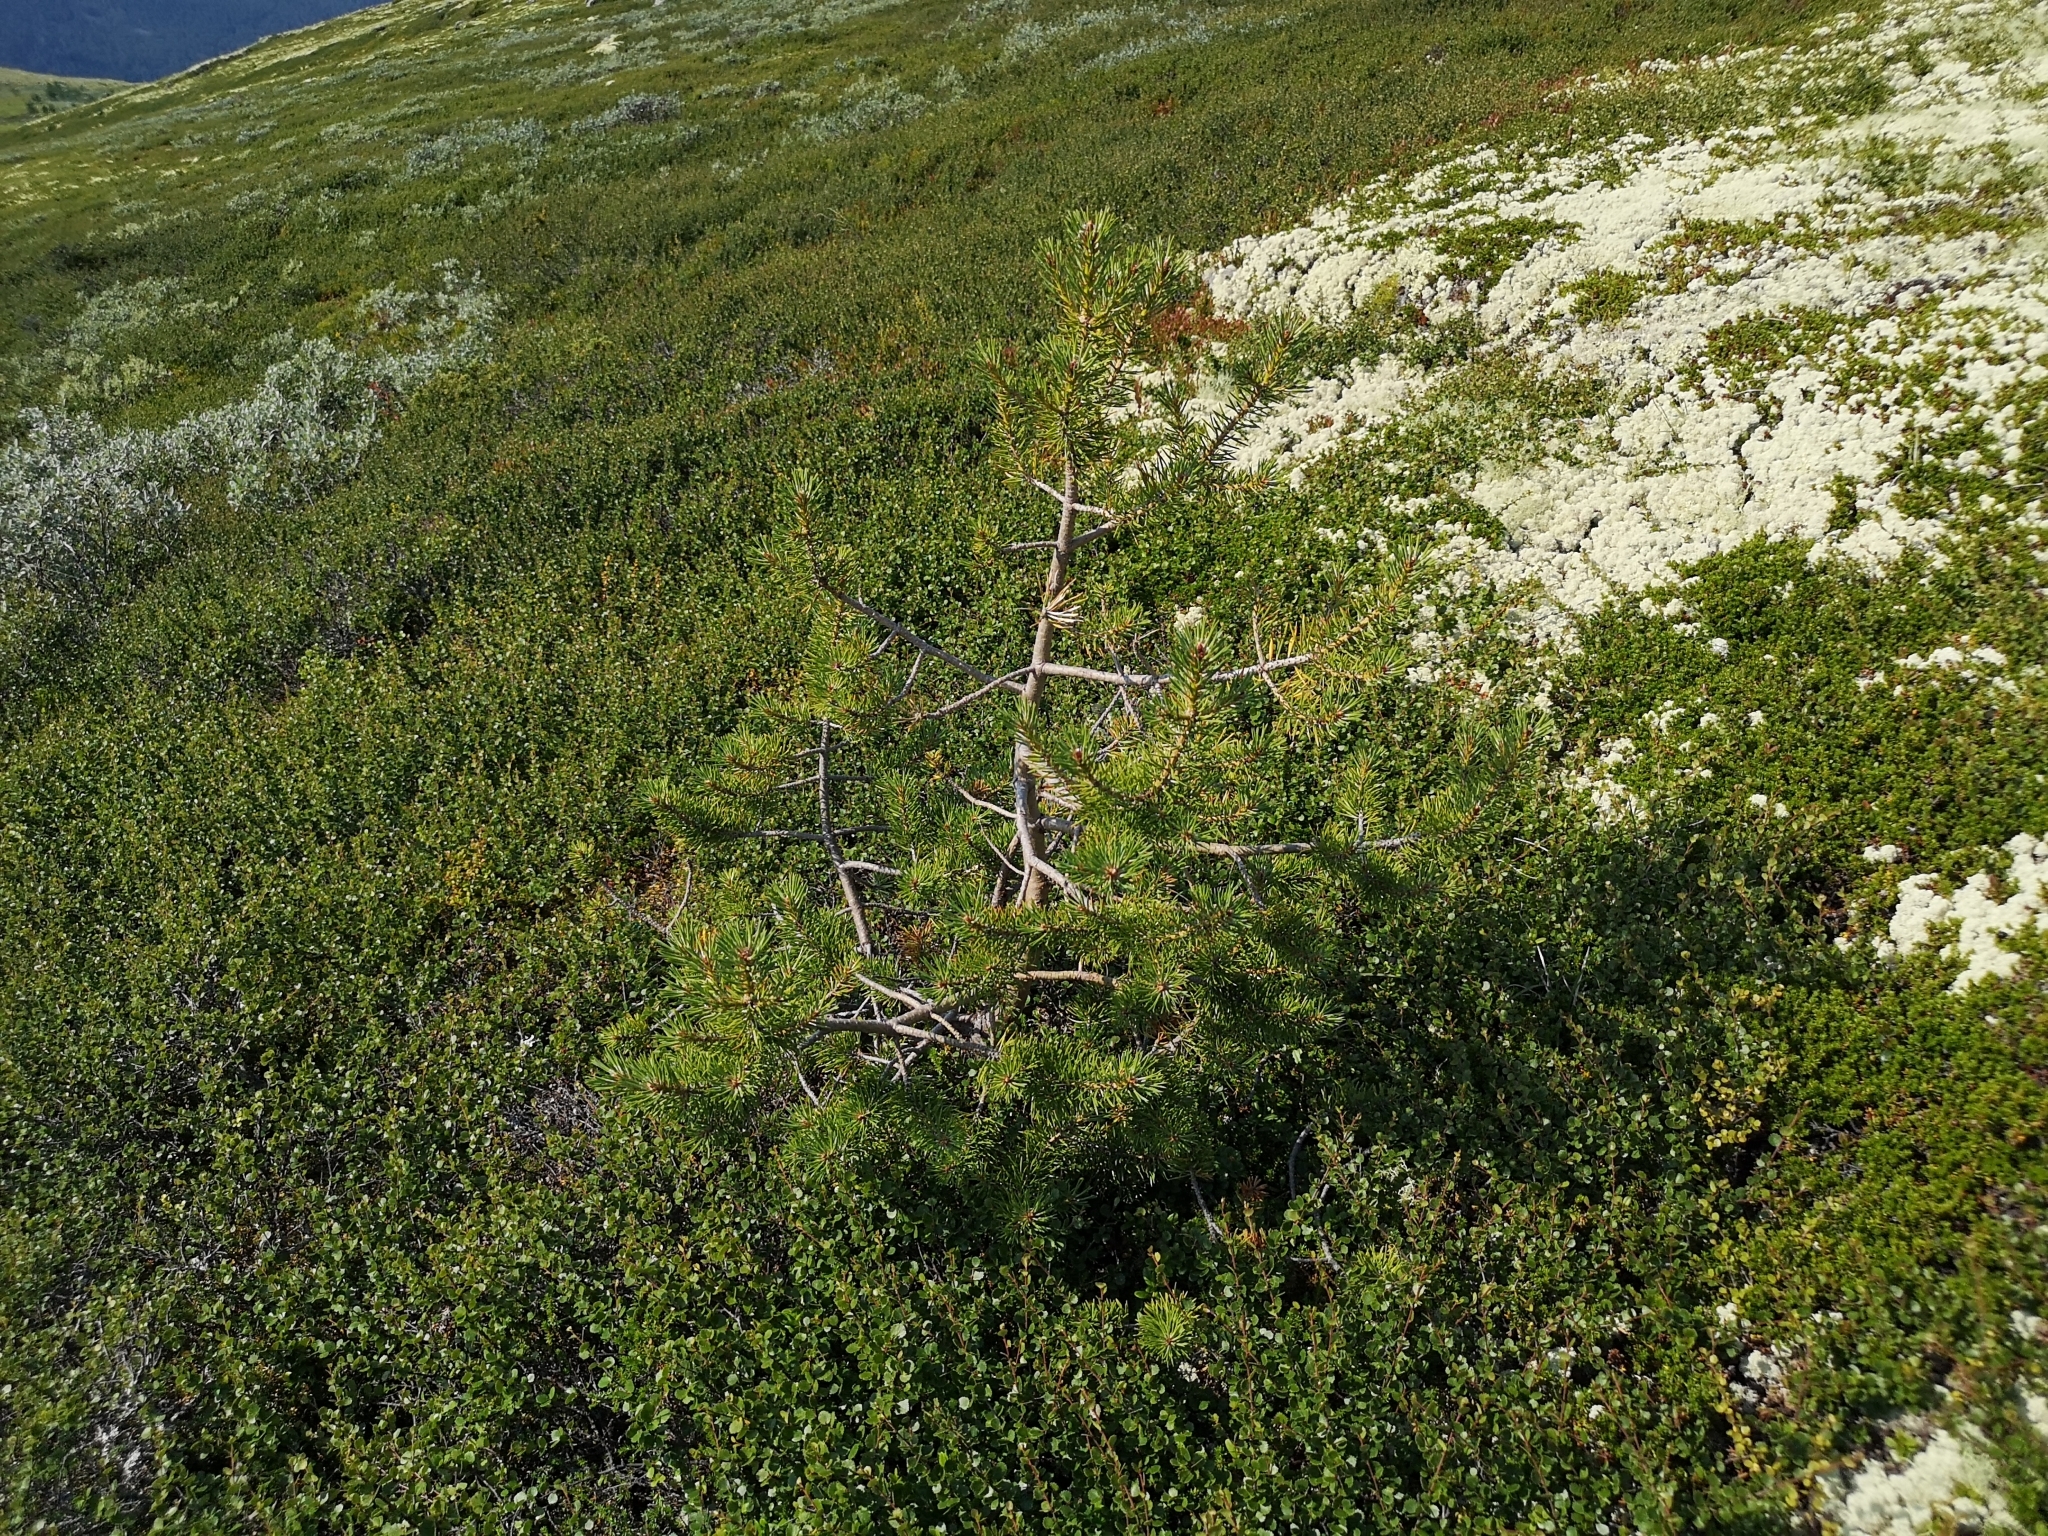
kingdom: Plantae
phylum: Tracheophyta
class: Pinopsida
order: Pinales
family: Pinaceae
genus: Pinus
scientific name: Pinus sylvestris
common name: Scots pine
